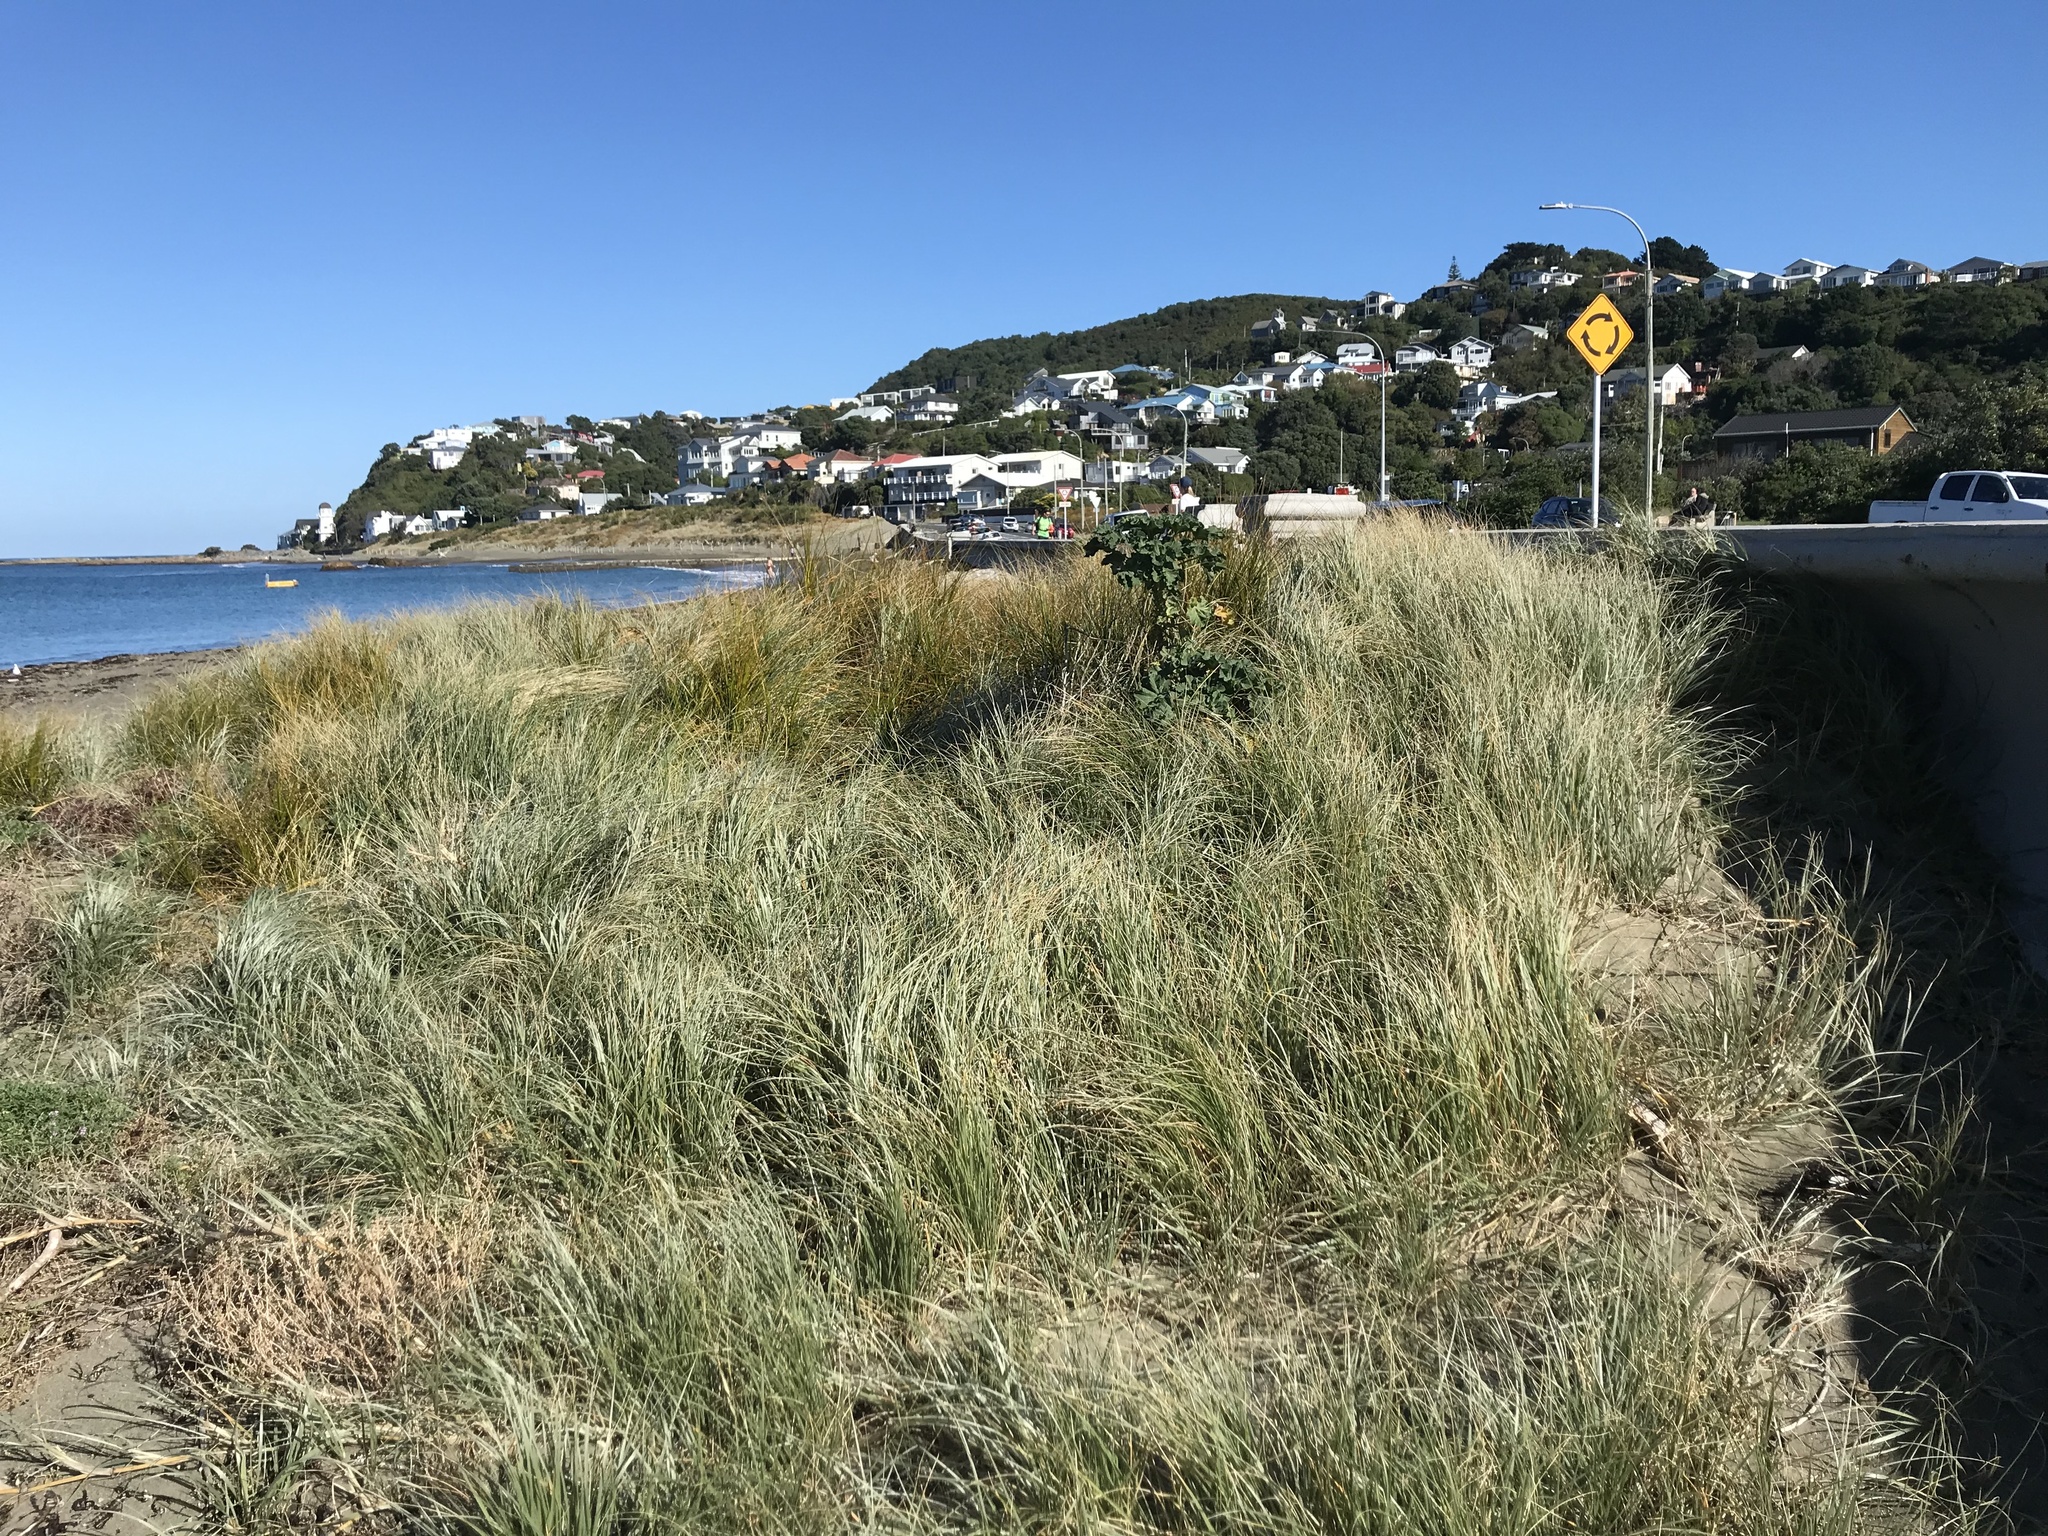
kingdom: Plantae
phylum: Tracheophyta
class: Liliopsida
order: Poales
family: Poaceae
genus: Spinifex
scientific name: Spinifex sericeus
